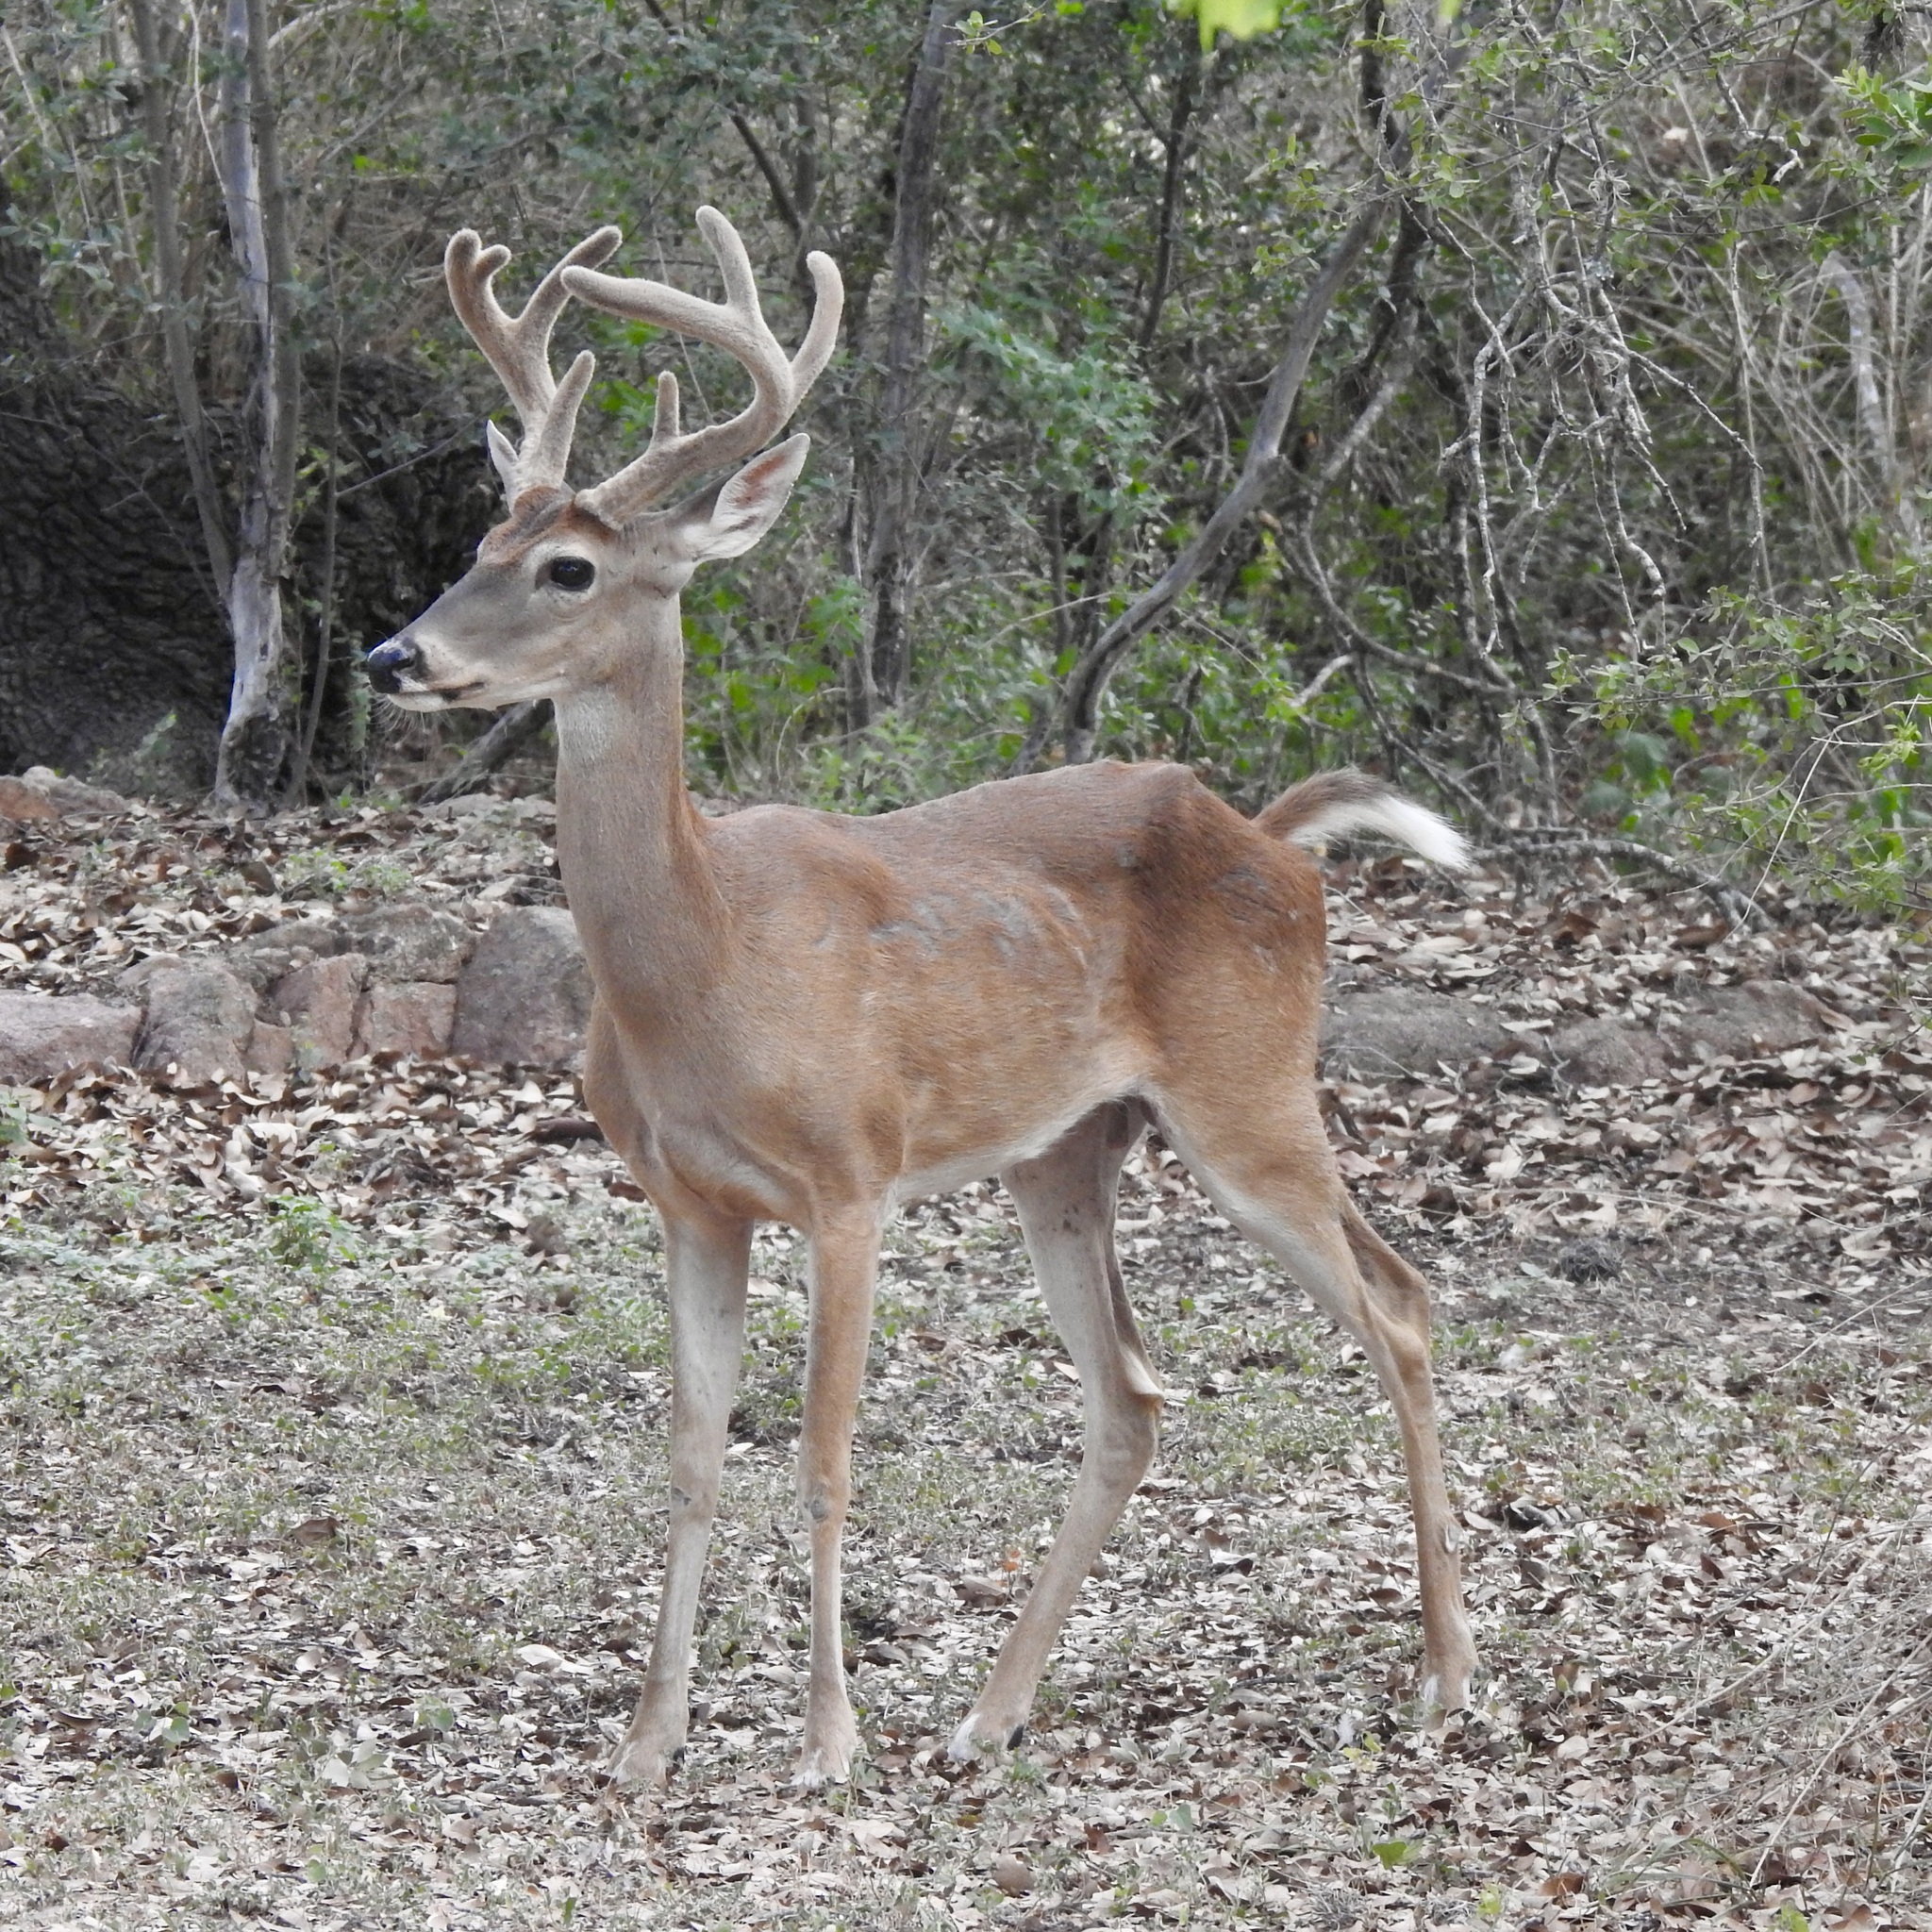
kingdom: Animalia
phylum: Chordata
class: Mammalia
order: Artiodactyla
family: Cervidae
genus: Odocoileus
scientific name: Odocoileus virginianus
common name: White-tailed deer
